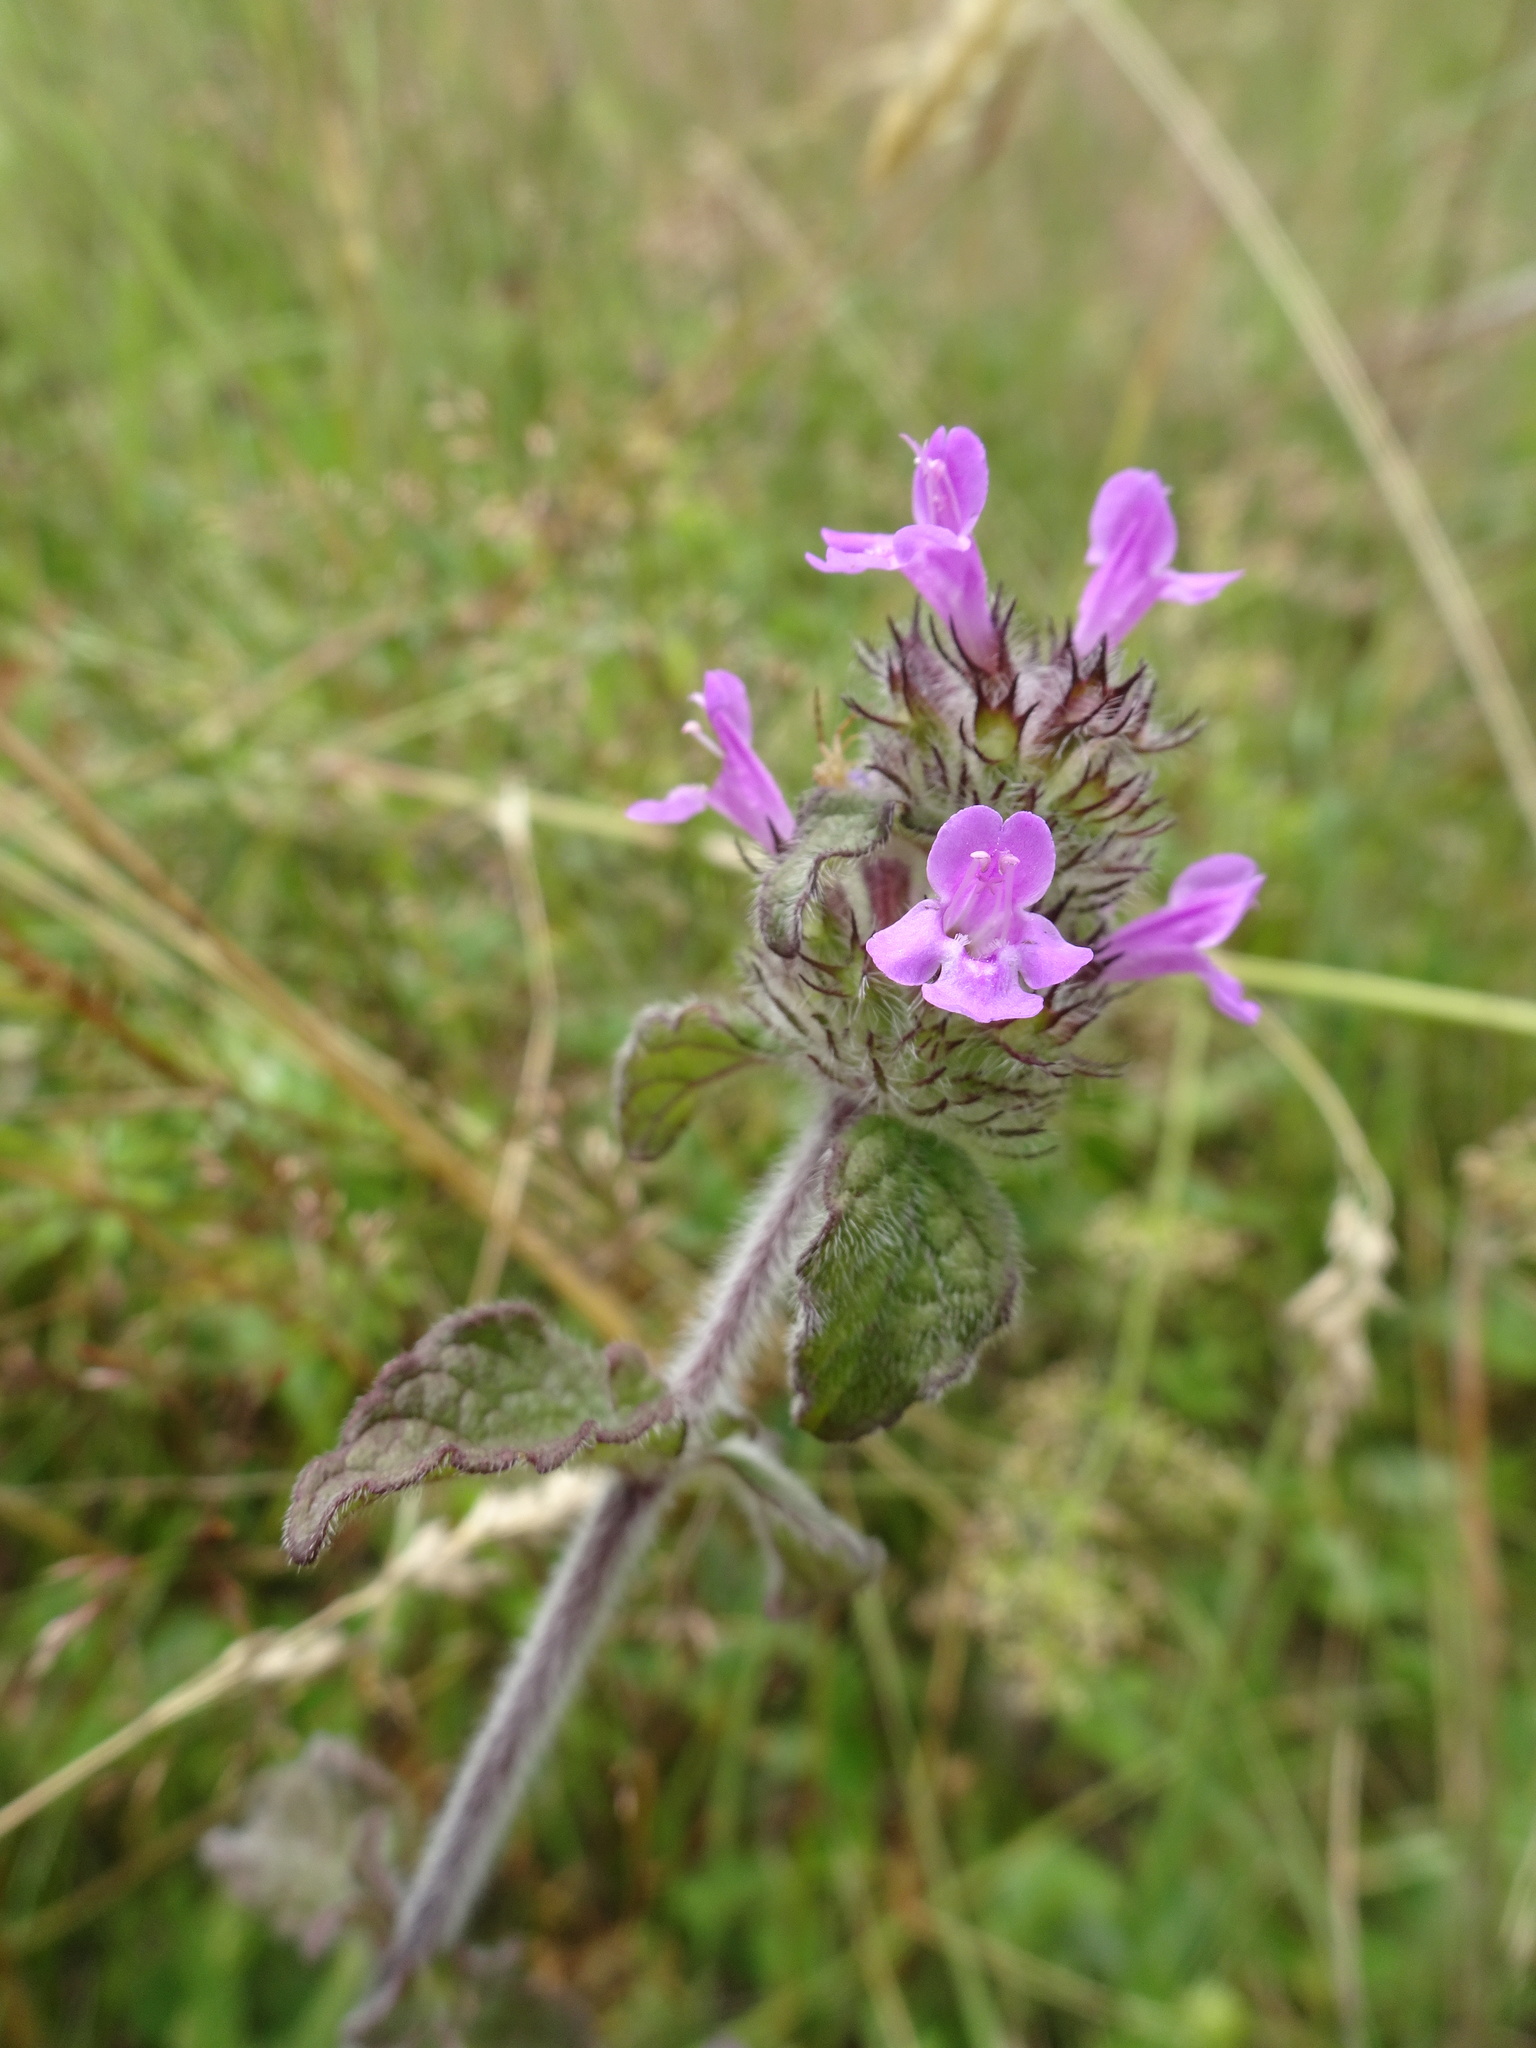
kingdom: Plantae
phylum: Tracheophyta
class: Magnoliopsida
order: Lamiales
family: Lamiaceae
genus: Clinopodium
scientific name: Clinopodium vulgare
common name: Wild basil
